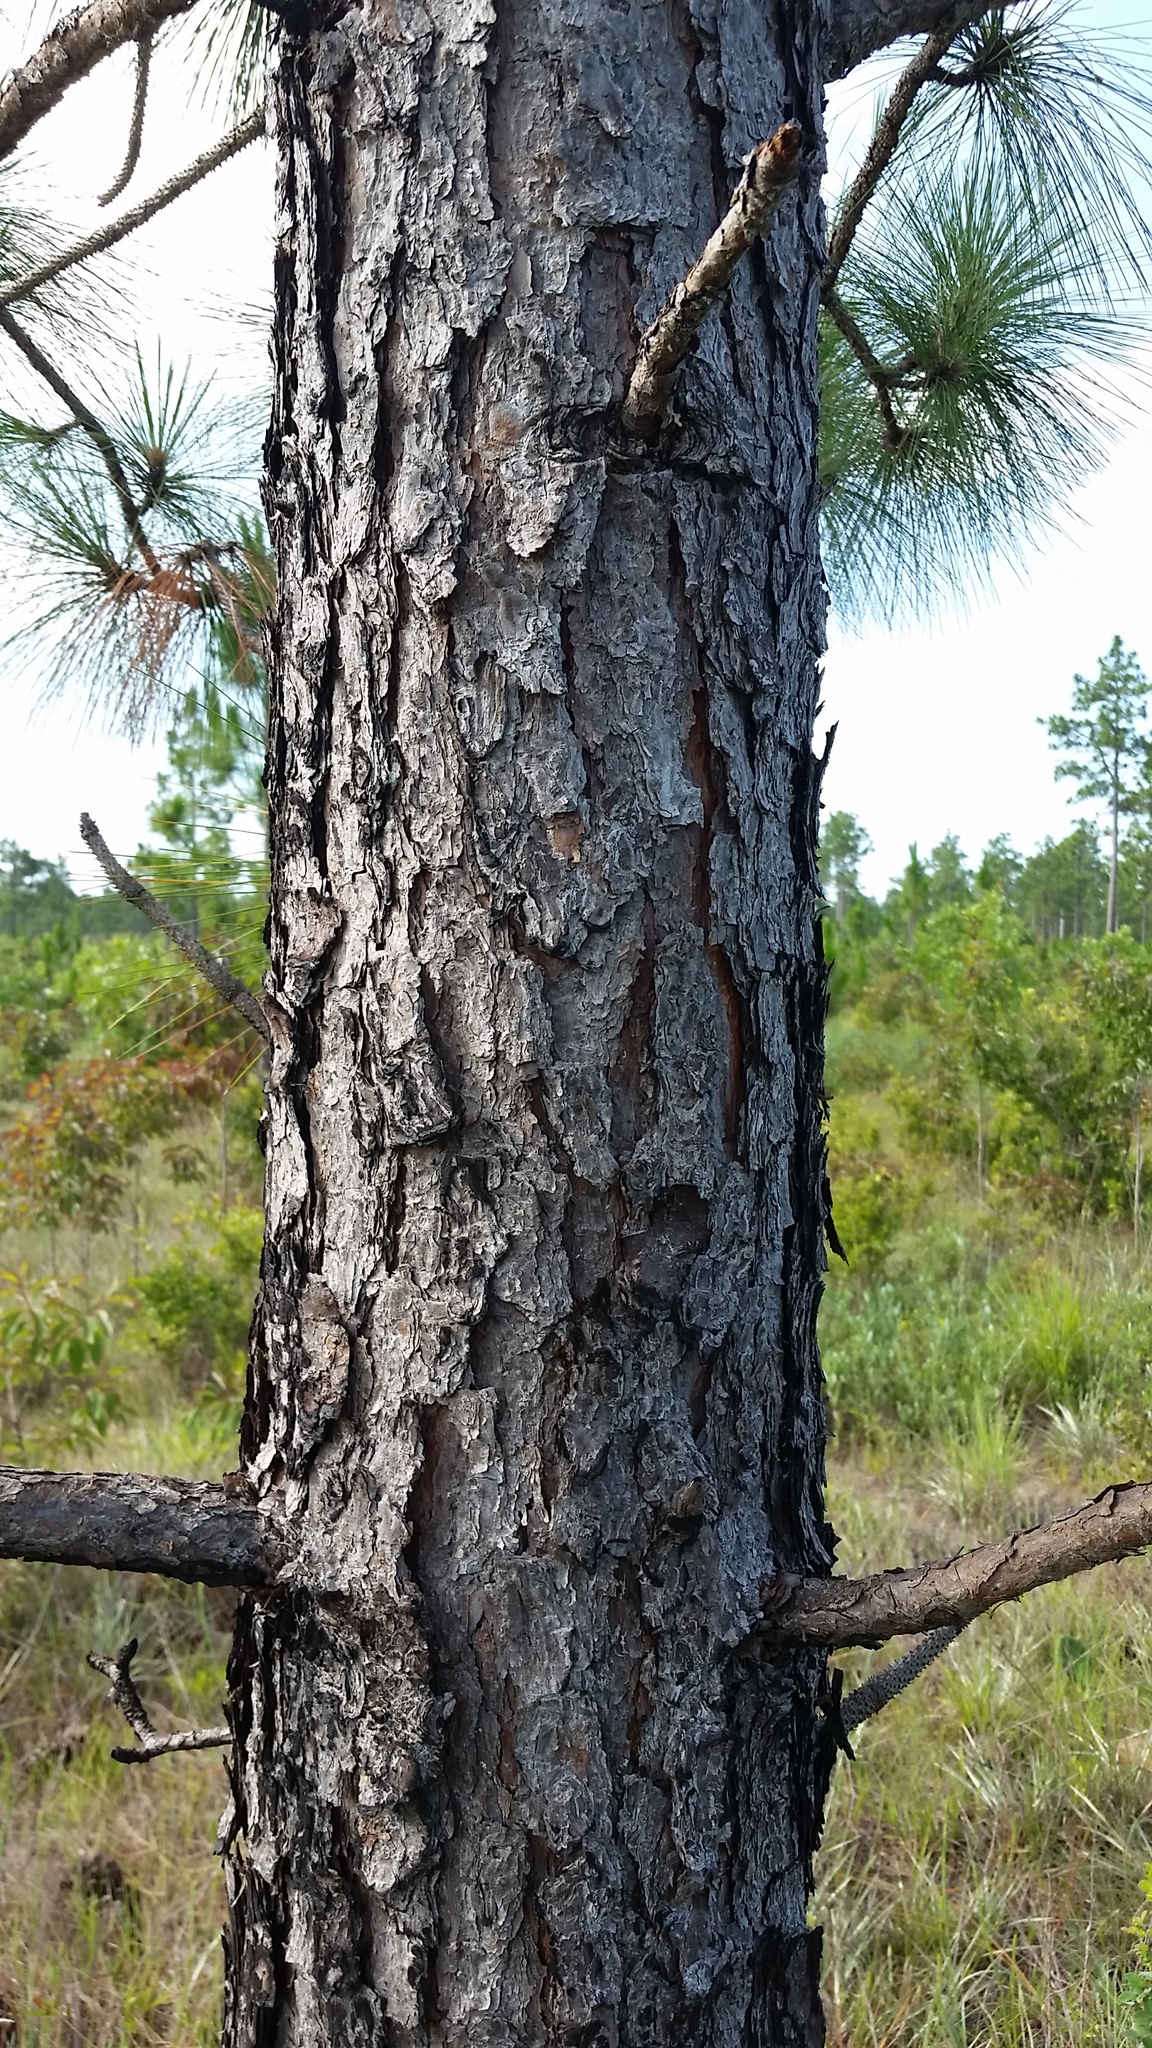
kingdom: Plantae
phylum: Tracheophyta
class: Pinopsida
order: Pinales
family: Pinaceae
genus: Pinus
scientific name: Pinus palustris
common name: Longleaf pine
